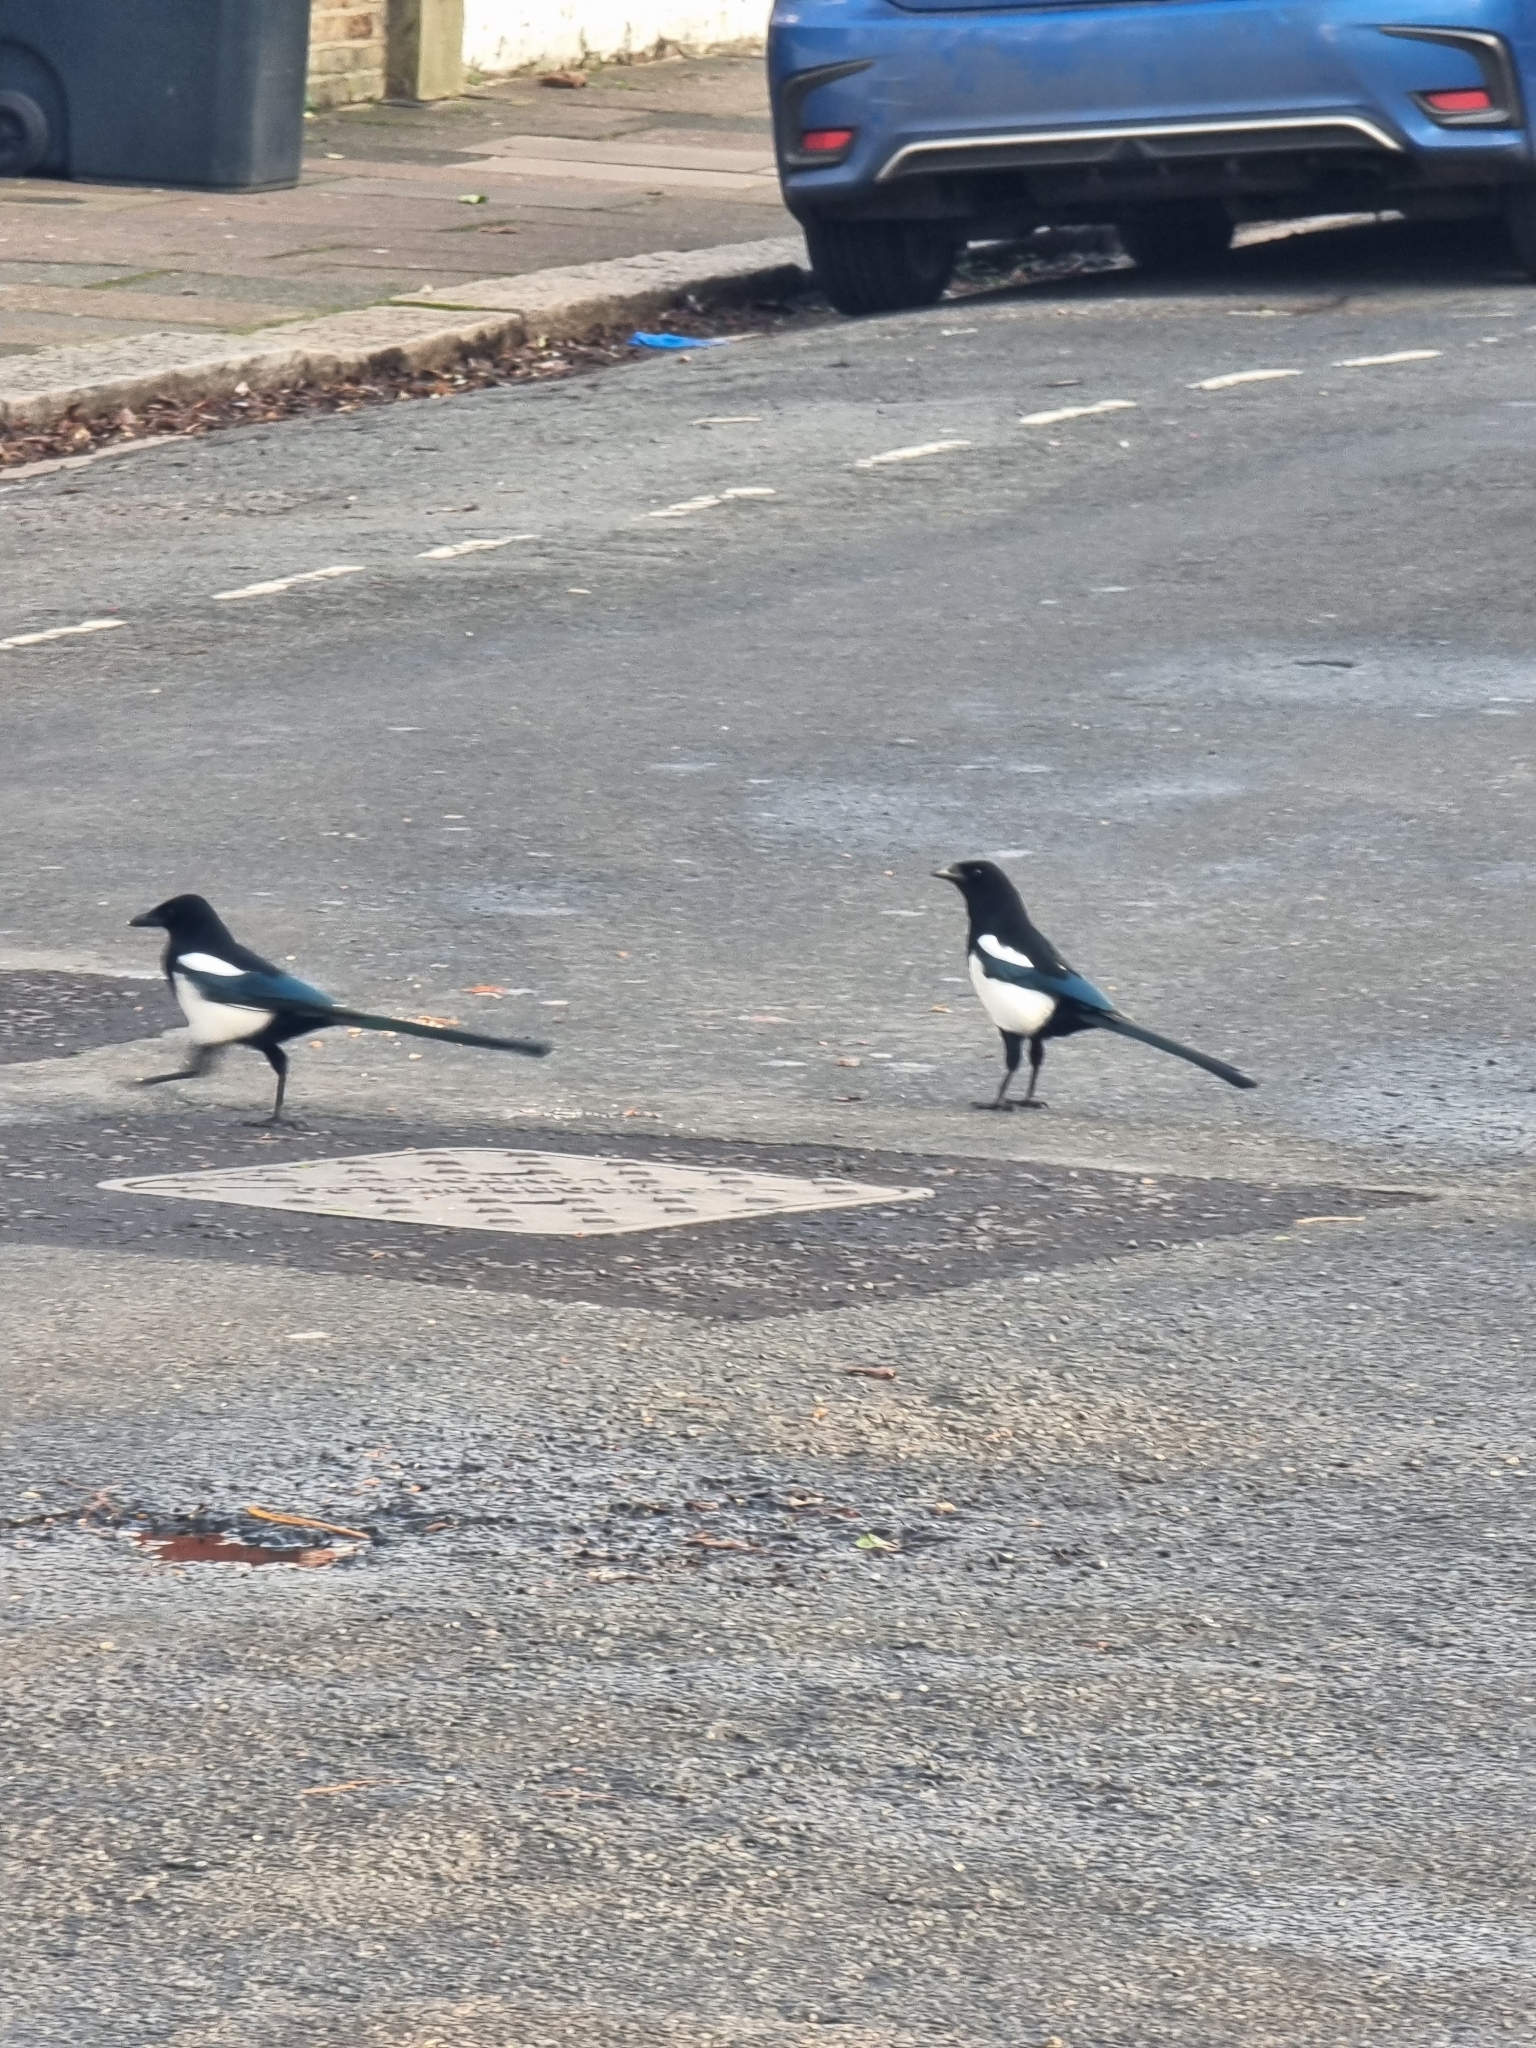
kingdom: Animalia
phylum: Chordata
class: Aves
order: Passeriformes
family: Corvidae
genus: Pica
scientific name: Pica pica
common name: Eurasian magpie
